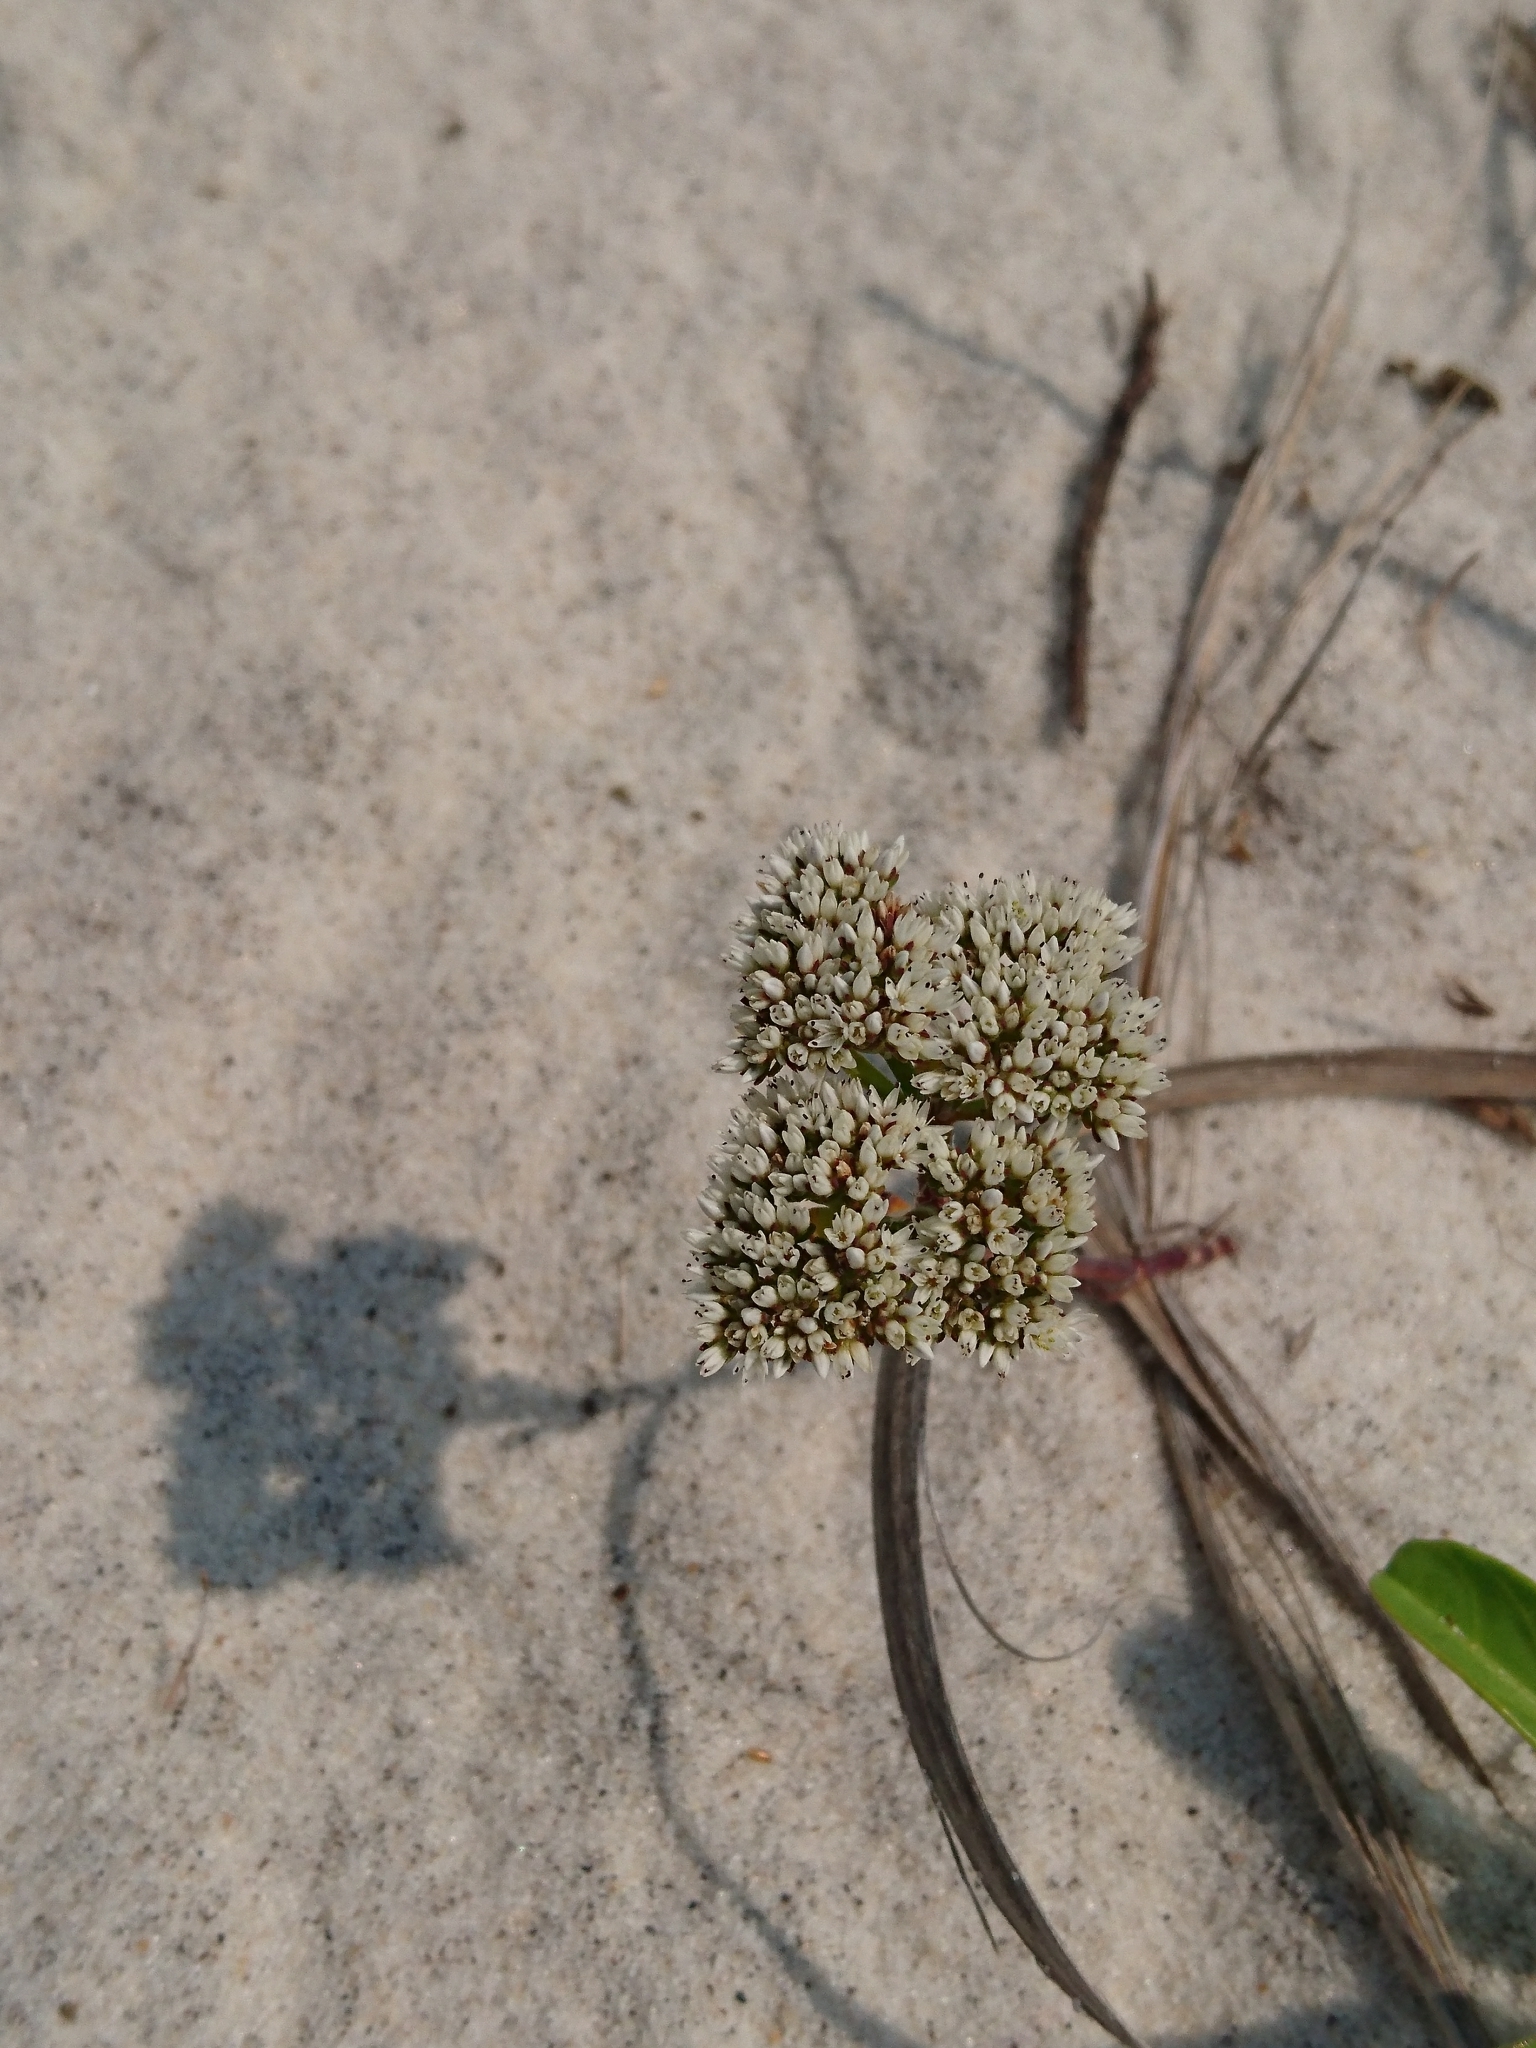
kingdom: Plantae
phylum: Tracheophyta
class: Magnoliopsida
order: Caryophyllales
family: Caryophyllaceae
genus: Paronychia
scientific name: Paronychia erecta
